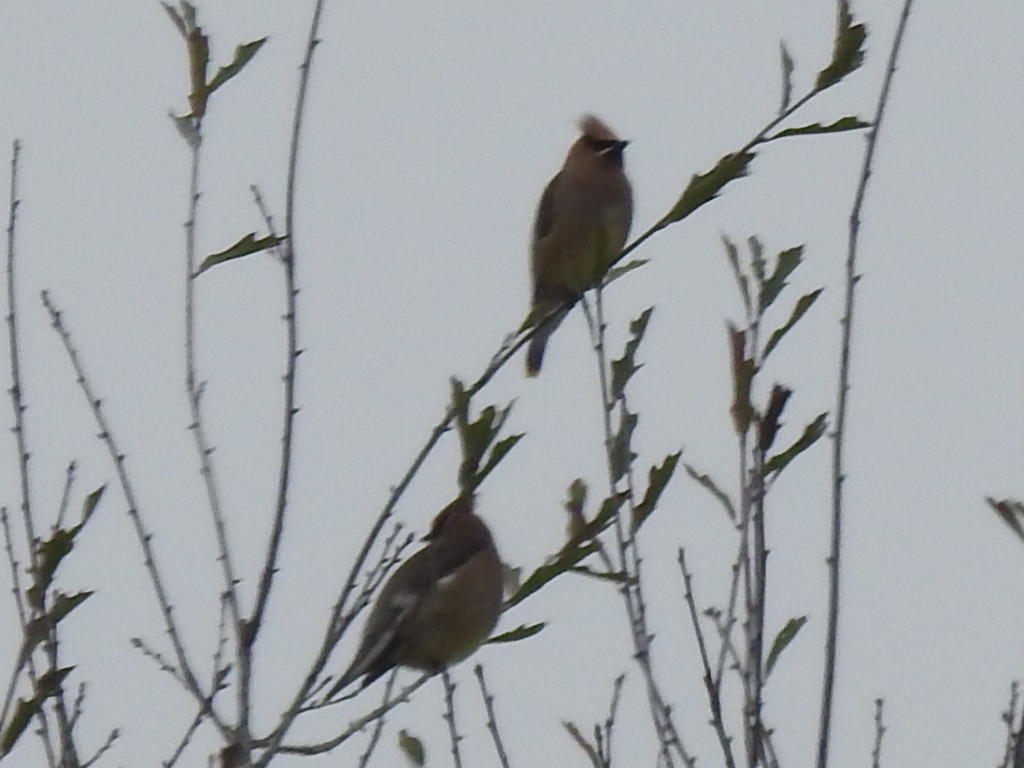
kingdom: Animalia
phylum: Chordata
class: Aves
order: Passeriformes
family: Bombycillidae
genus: Bombycilla
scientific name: Bombycilla cedrorum
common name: Cedar waxwing
